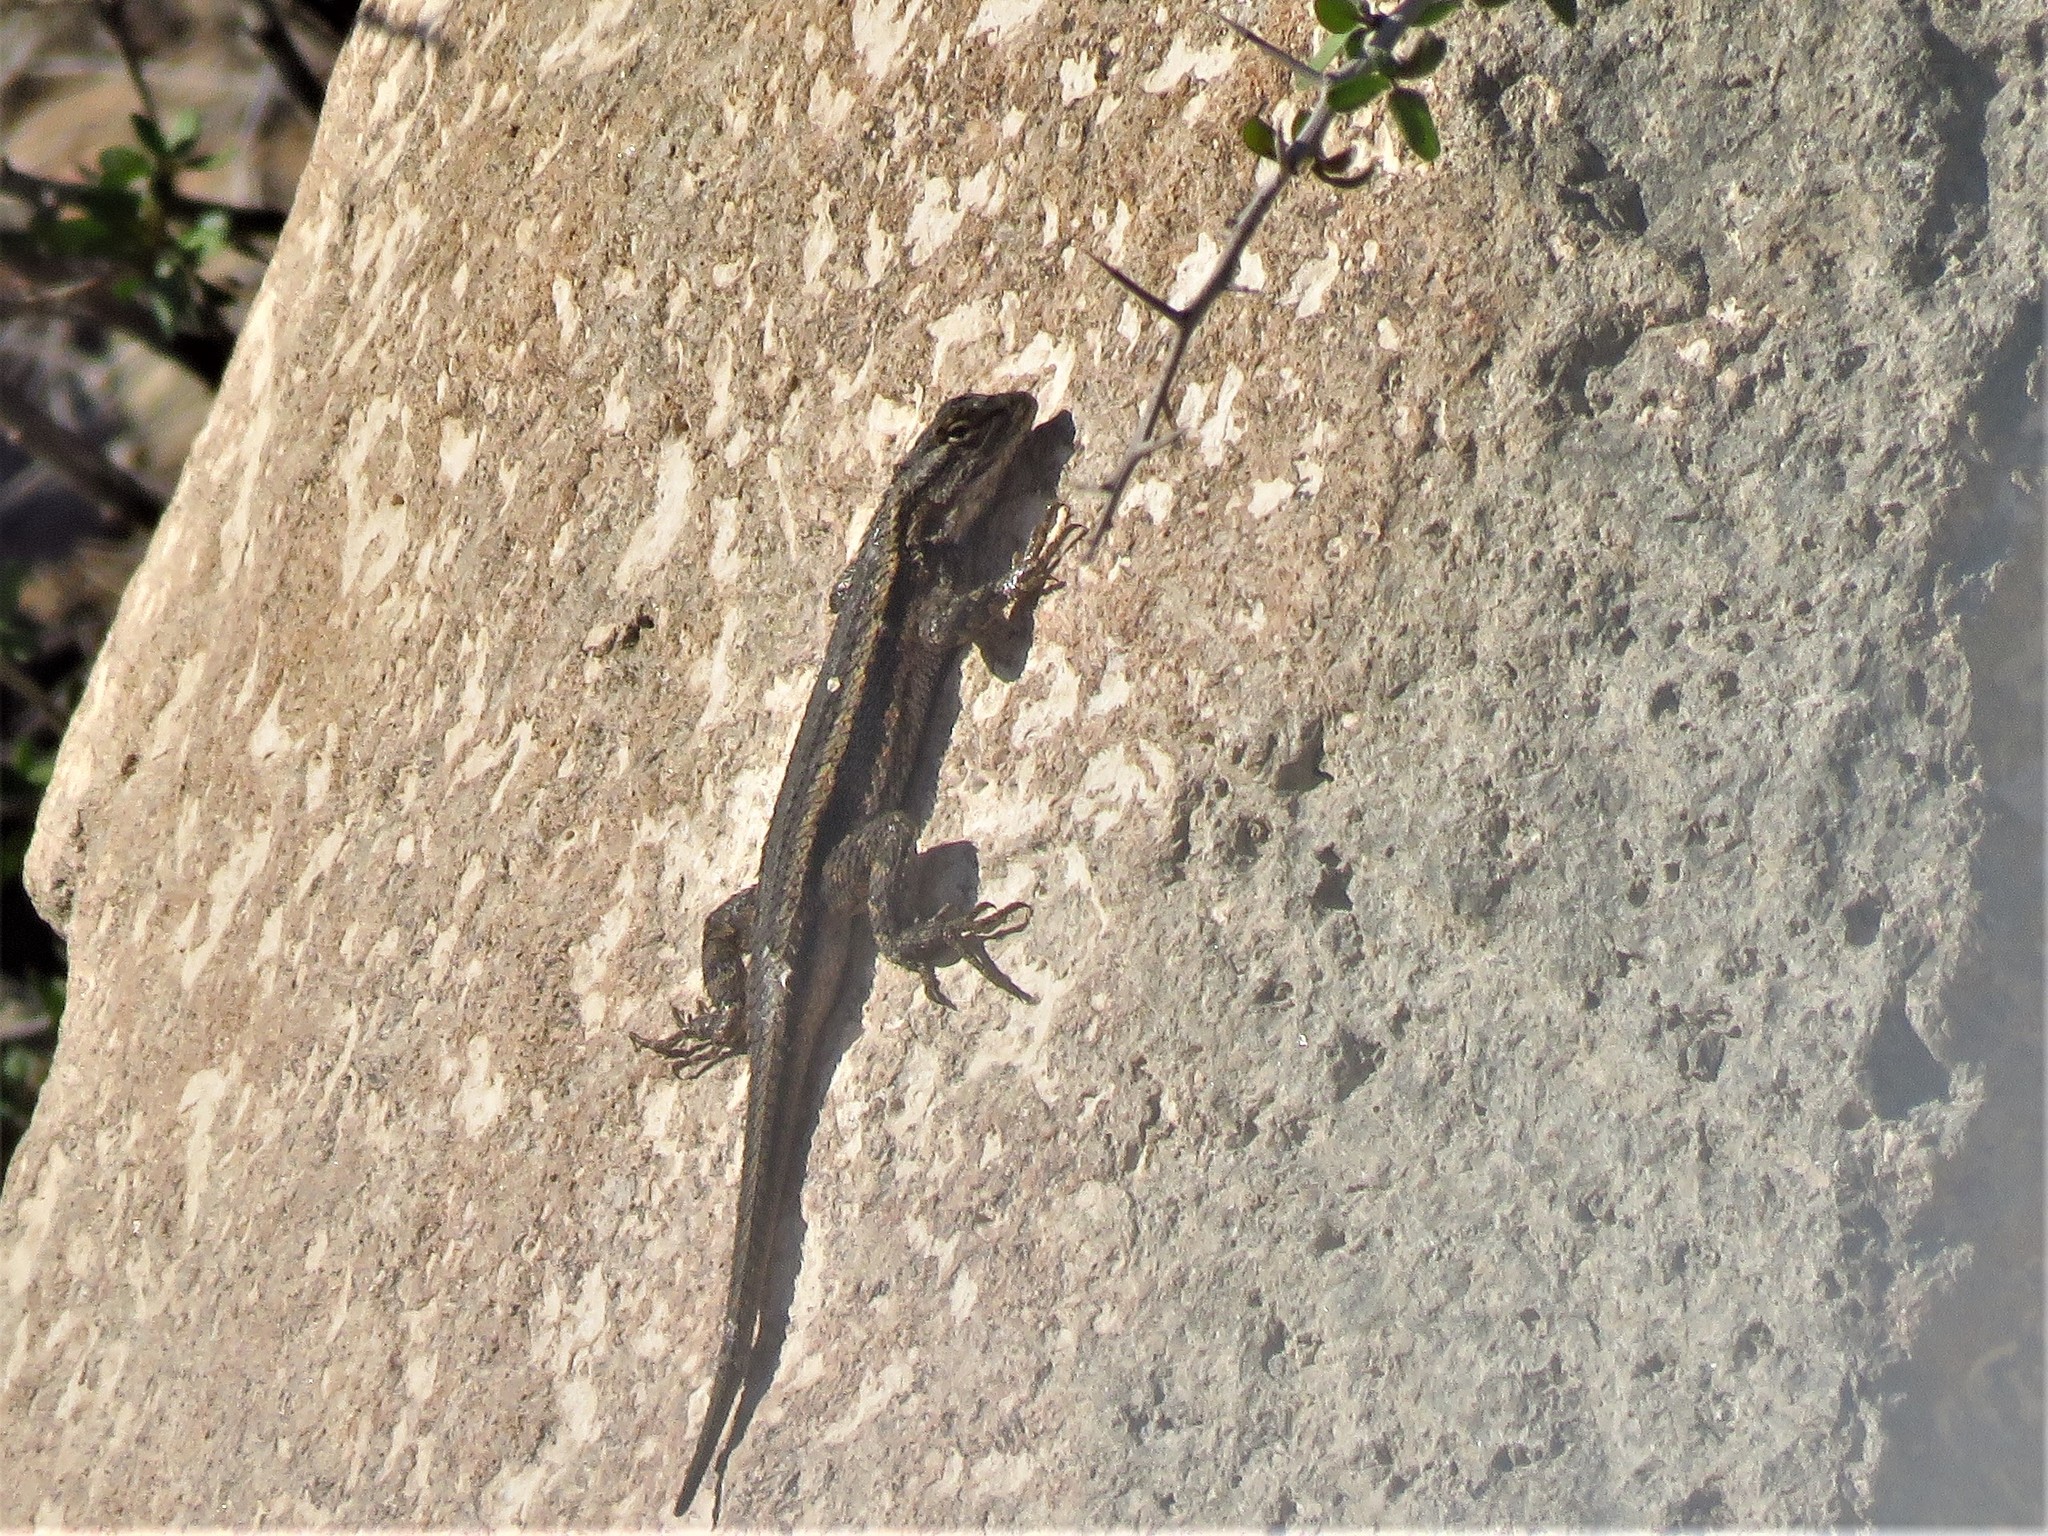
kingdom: Animalia
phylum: Chordata
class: Squamata
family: Phrynosomatidae
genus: Sceloporus
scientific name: Sceloporus cowlesi
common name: White sands prairie lizard
